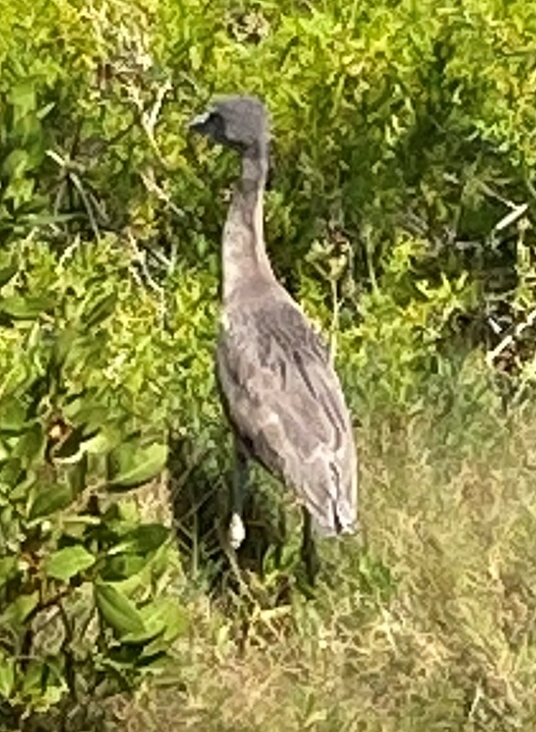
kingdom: Animalia
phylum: Chordata
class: Aves
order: Pelecaniformes
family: Ardeidae
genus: Nyctanassa
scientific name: Nyctanassa violacea
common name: Yellow-crowned night heron
